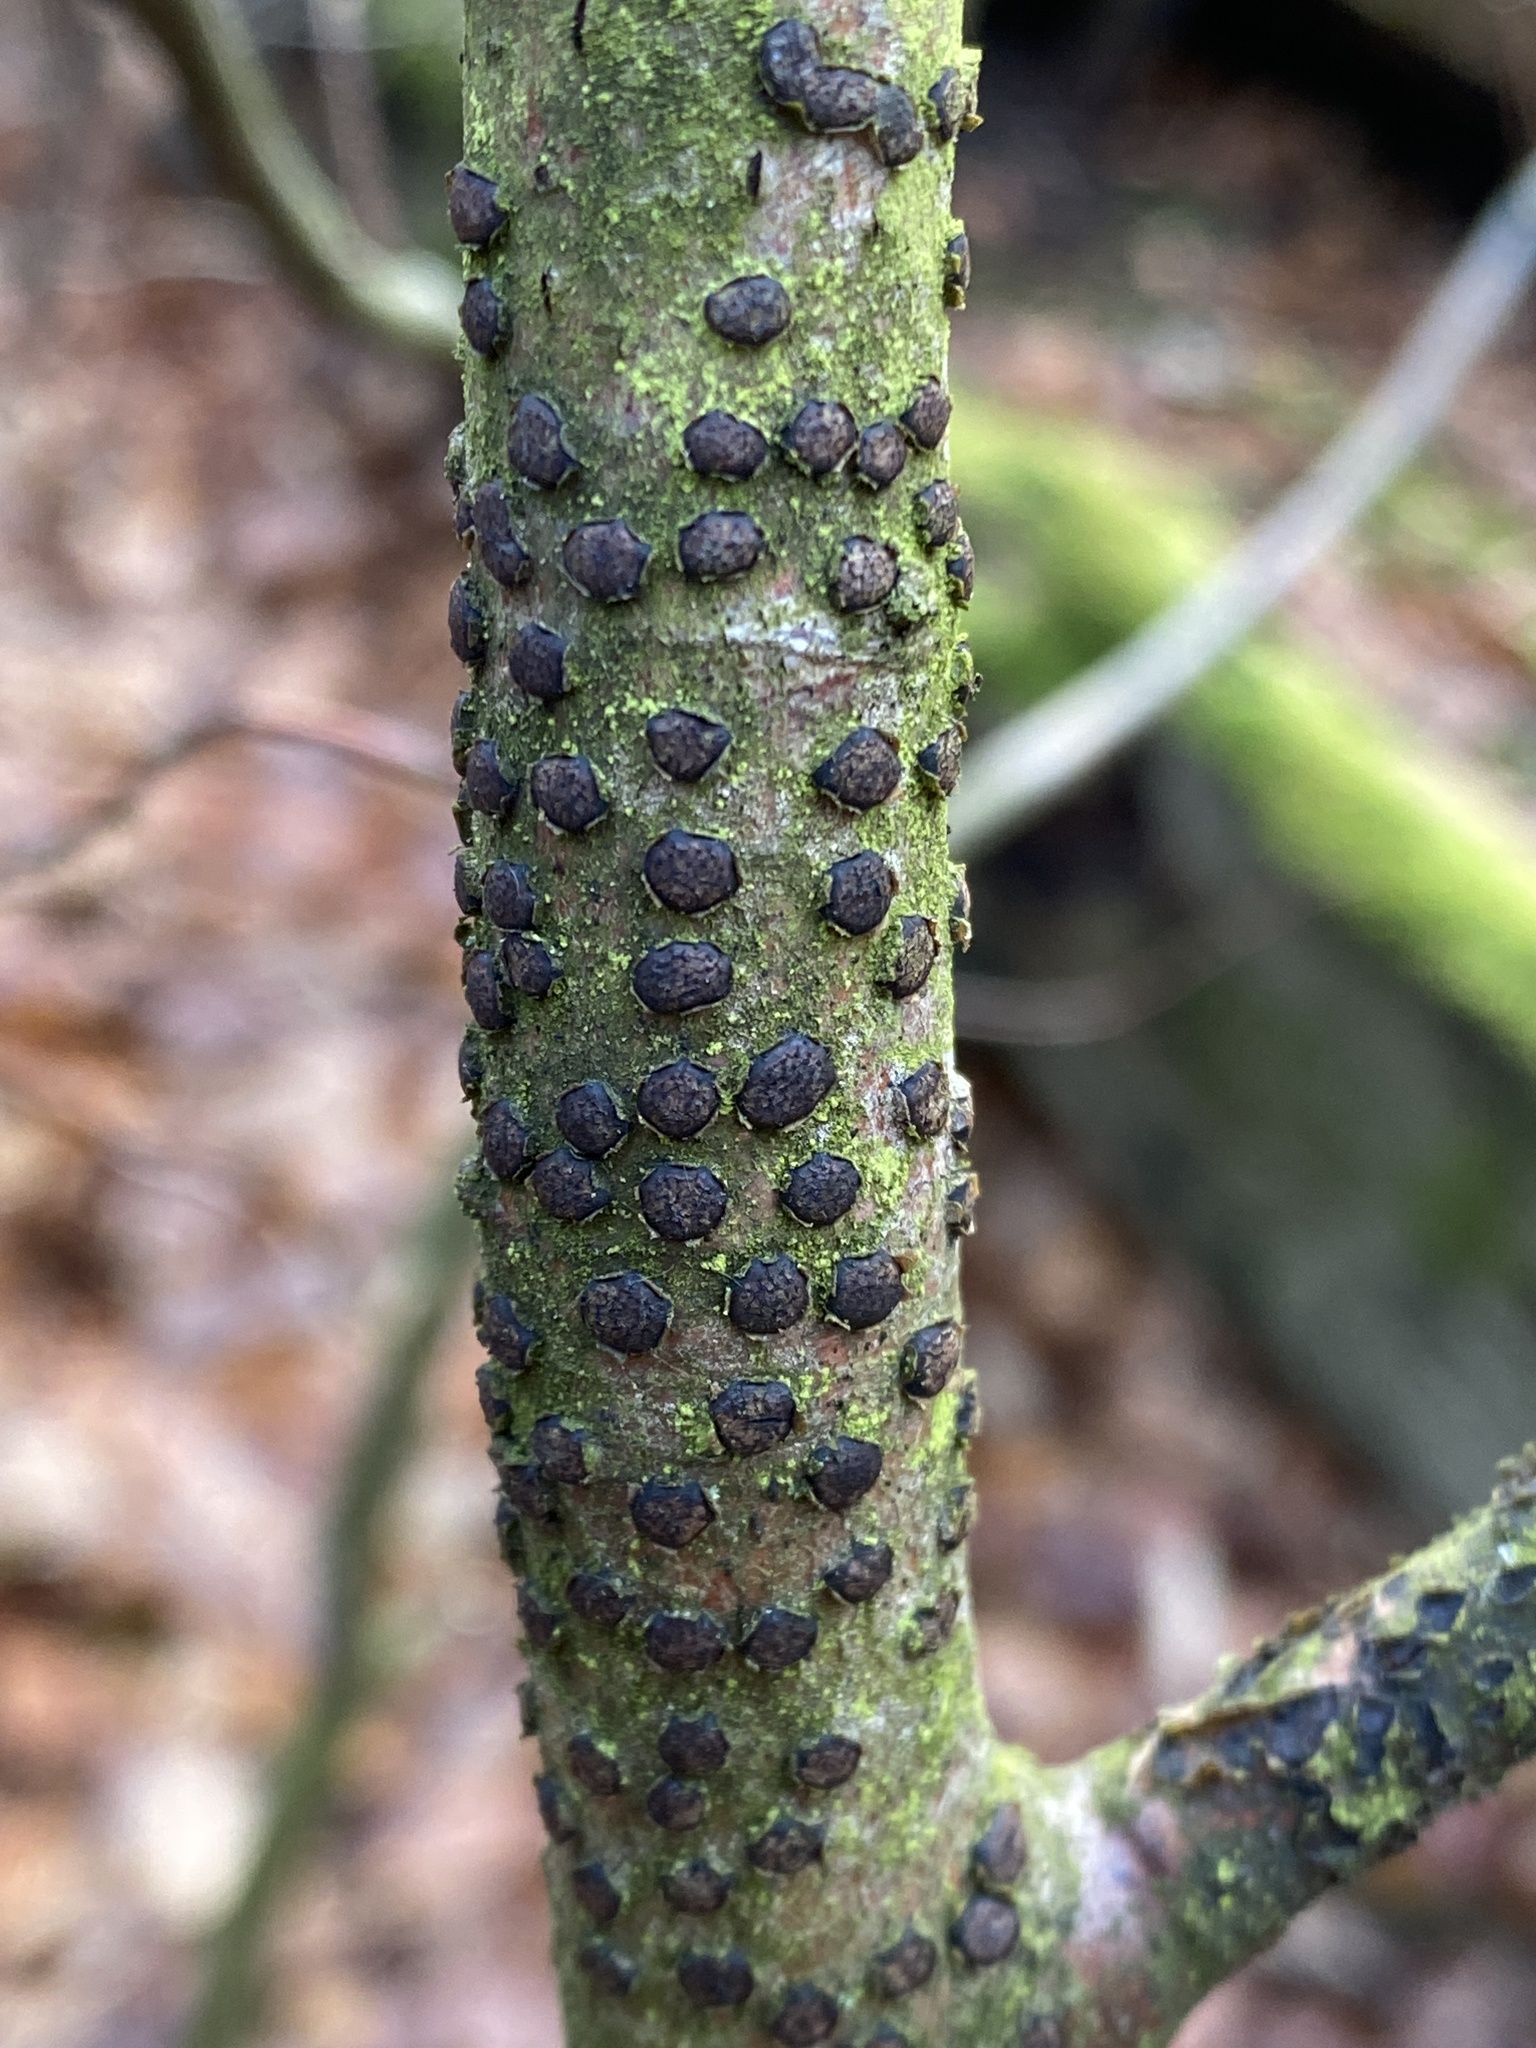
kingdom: Fungi
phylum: Ascomycota
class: Sordariomycetes
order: Xylariales
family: Diatrypaceae
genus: Diatrype
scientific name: Diatrype disciformis
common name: Beech barkspot
